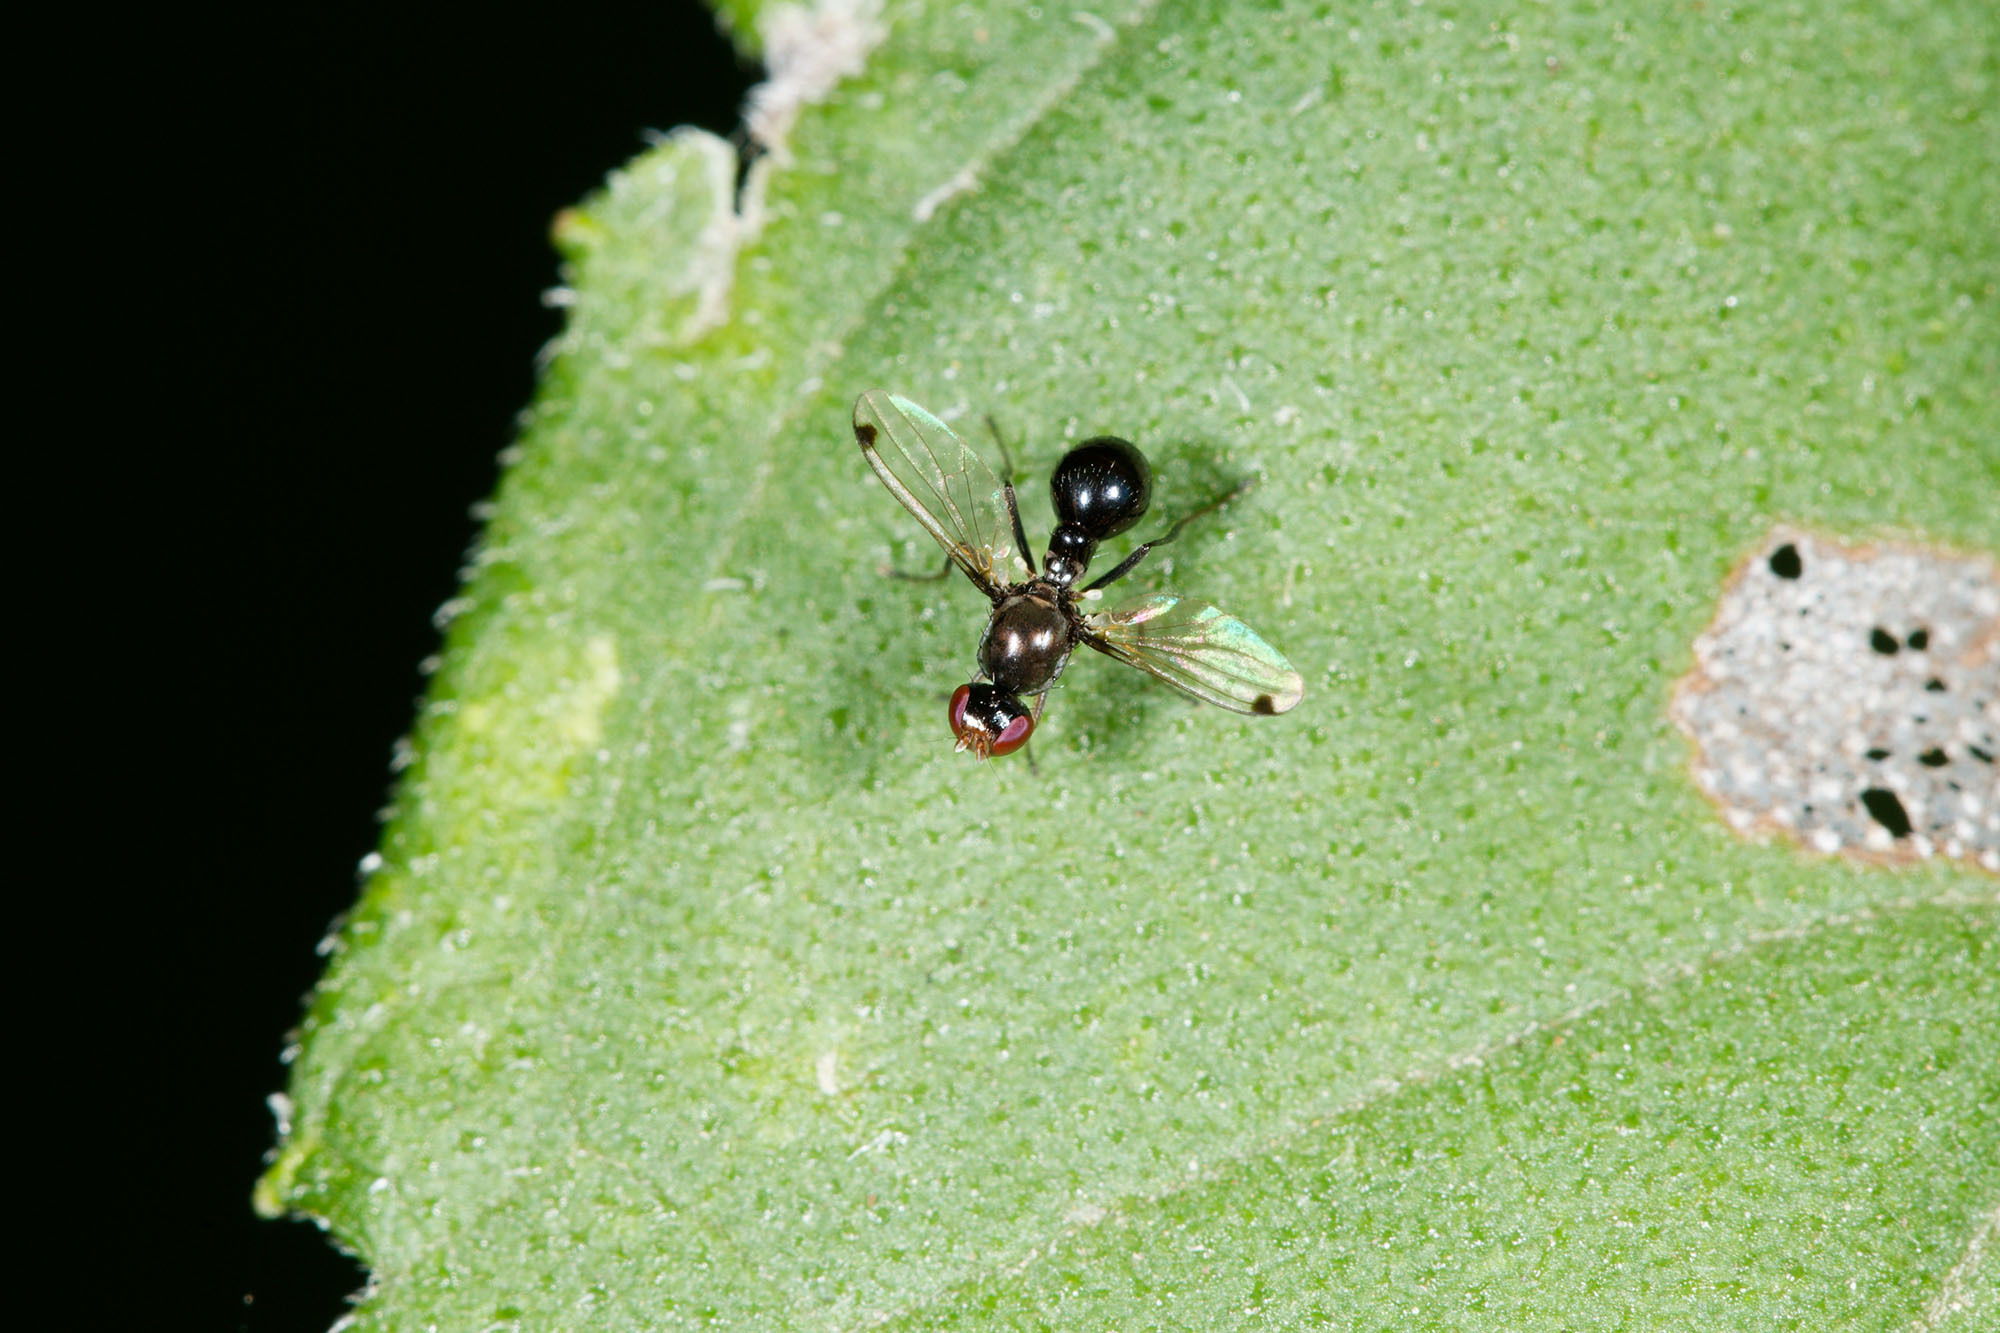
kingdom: Animalia
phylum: Arthropoda
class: Insecta
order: Diptera
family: Sepsidae
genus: Parapalaeosepsis
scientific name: Parapalaeosepsis plebeia
